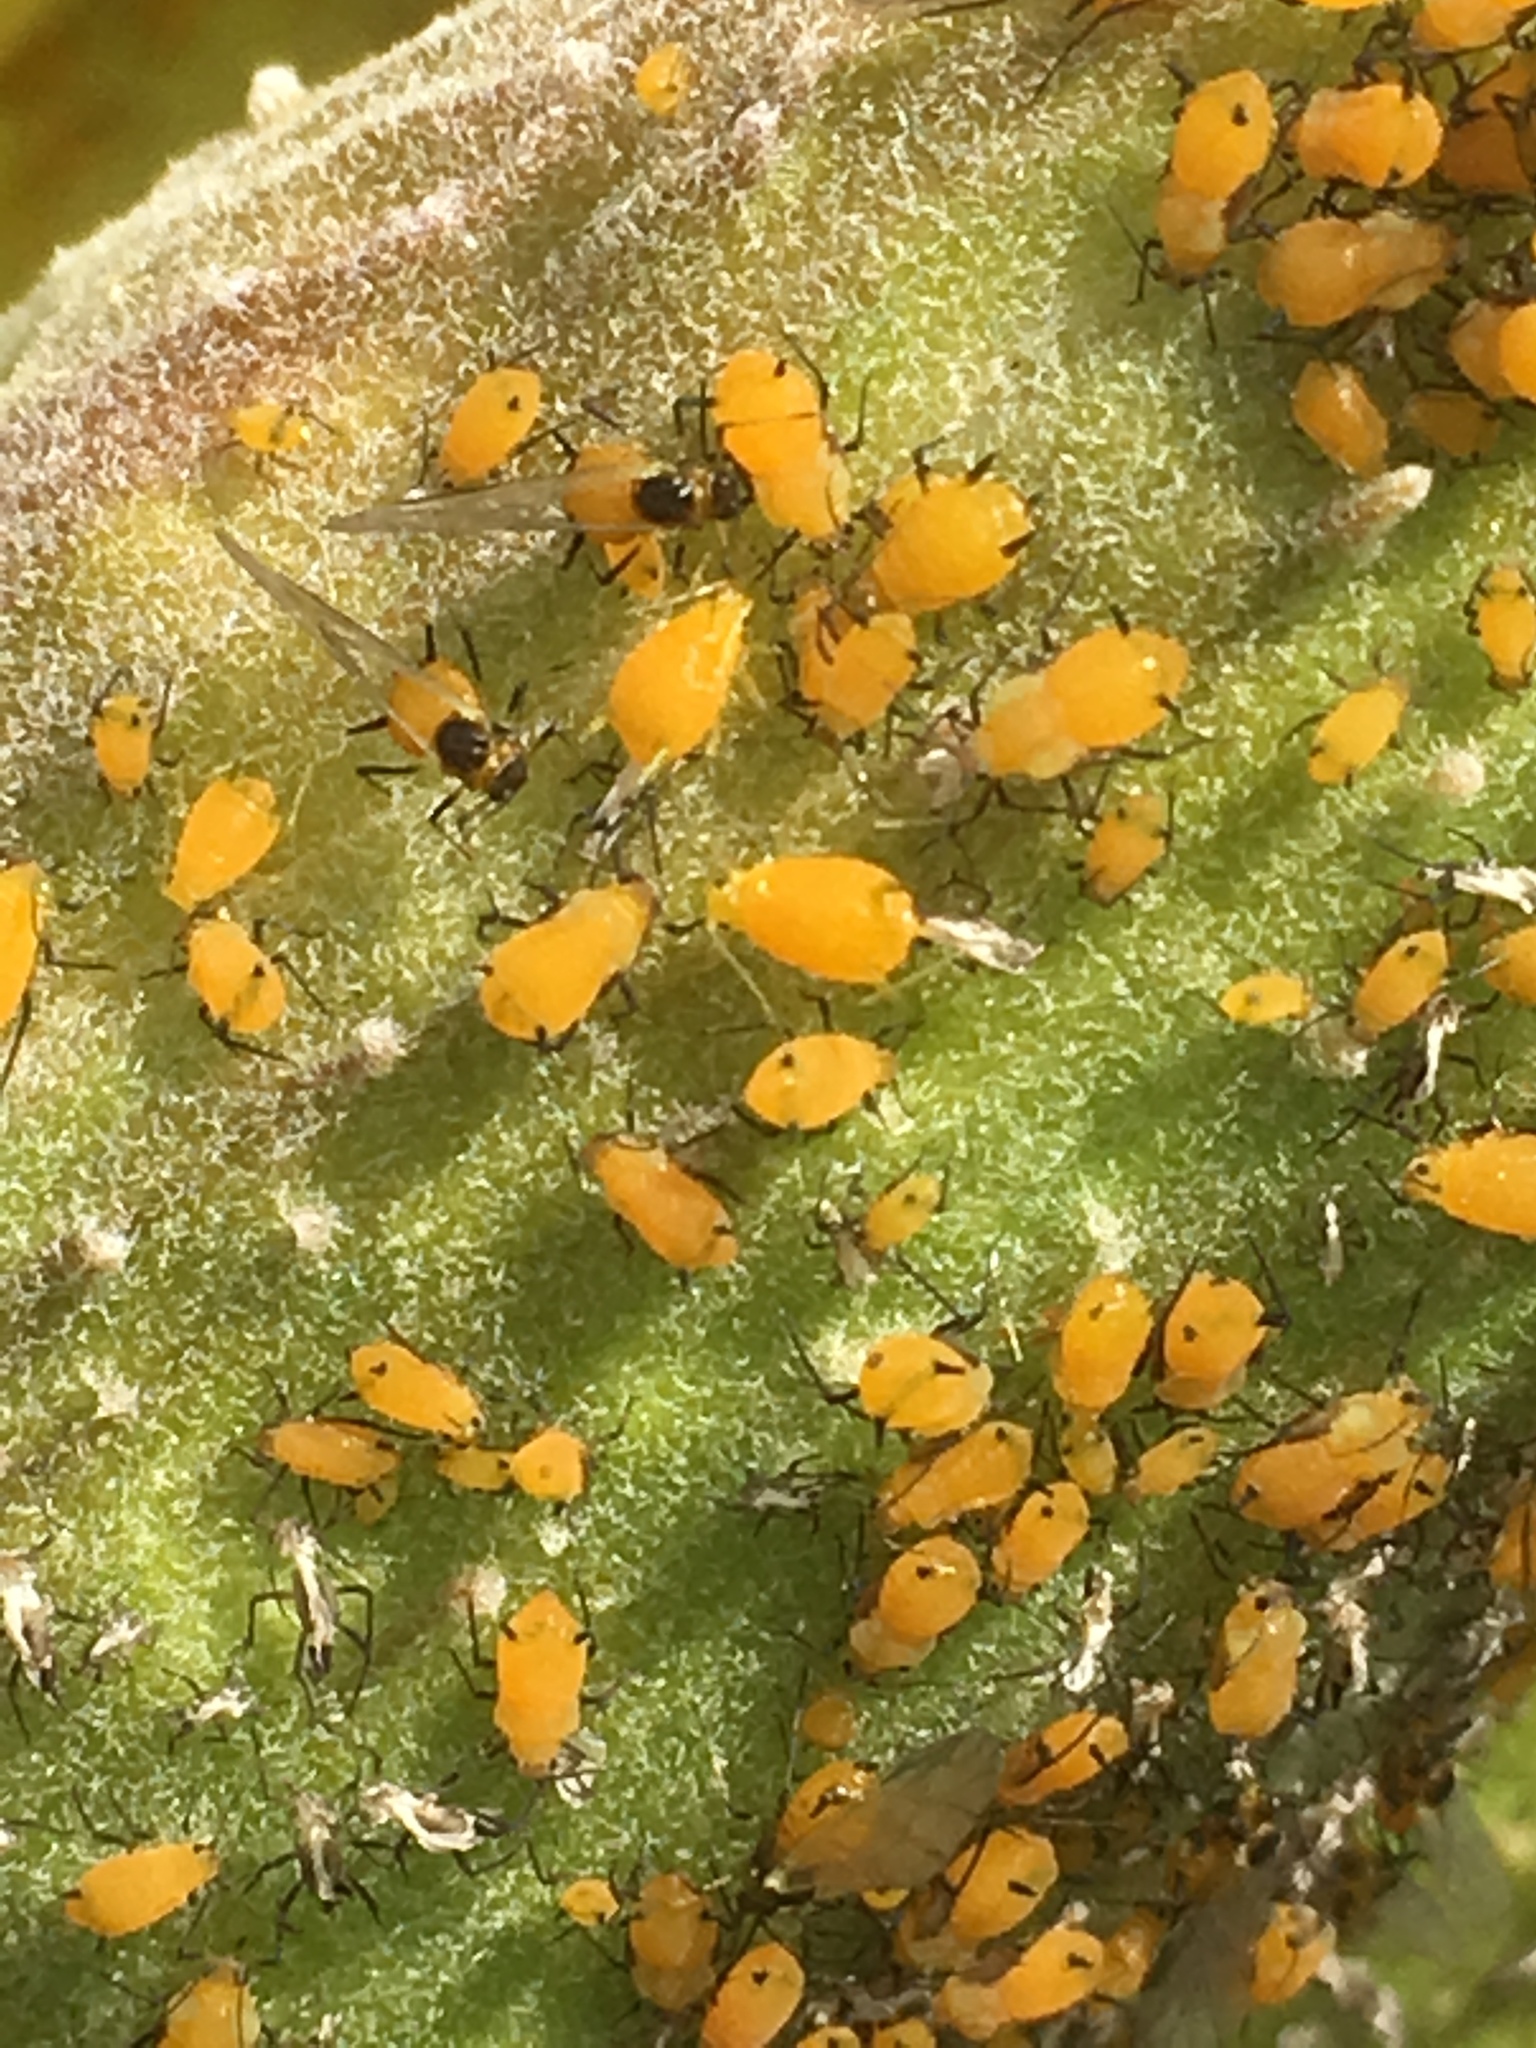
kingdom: Animalia
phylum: Arthropoda
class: Insecta
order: Hemiptera
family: Aphididae
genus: Aphis
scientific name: Aphis nerii
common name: Oleander aphid
